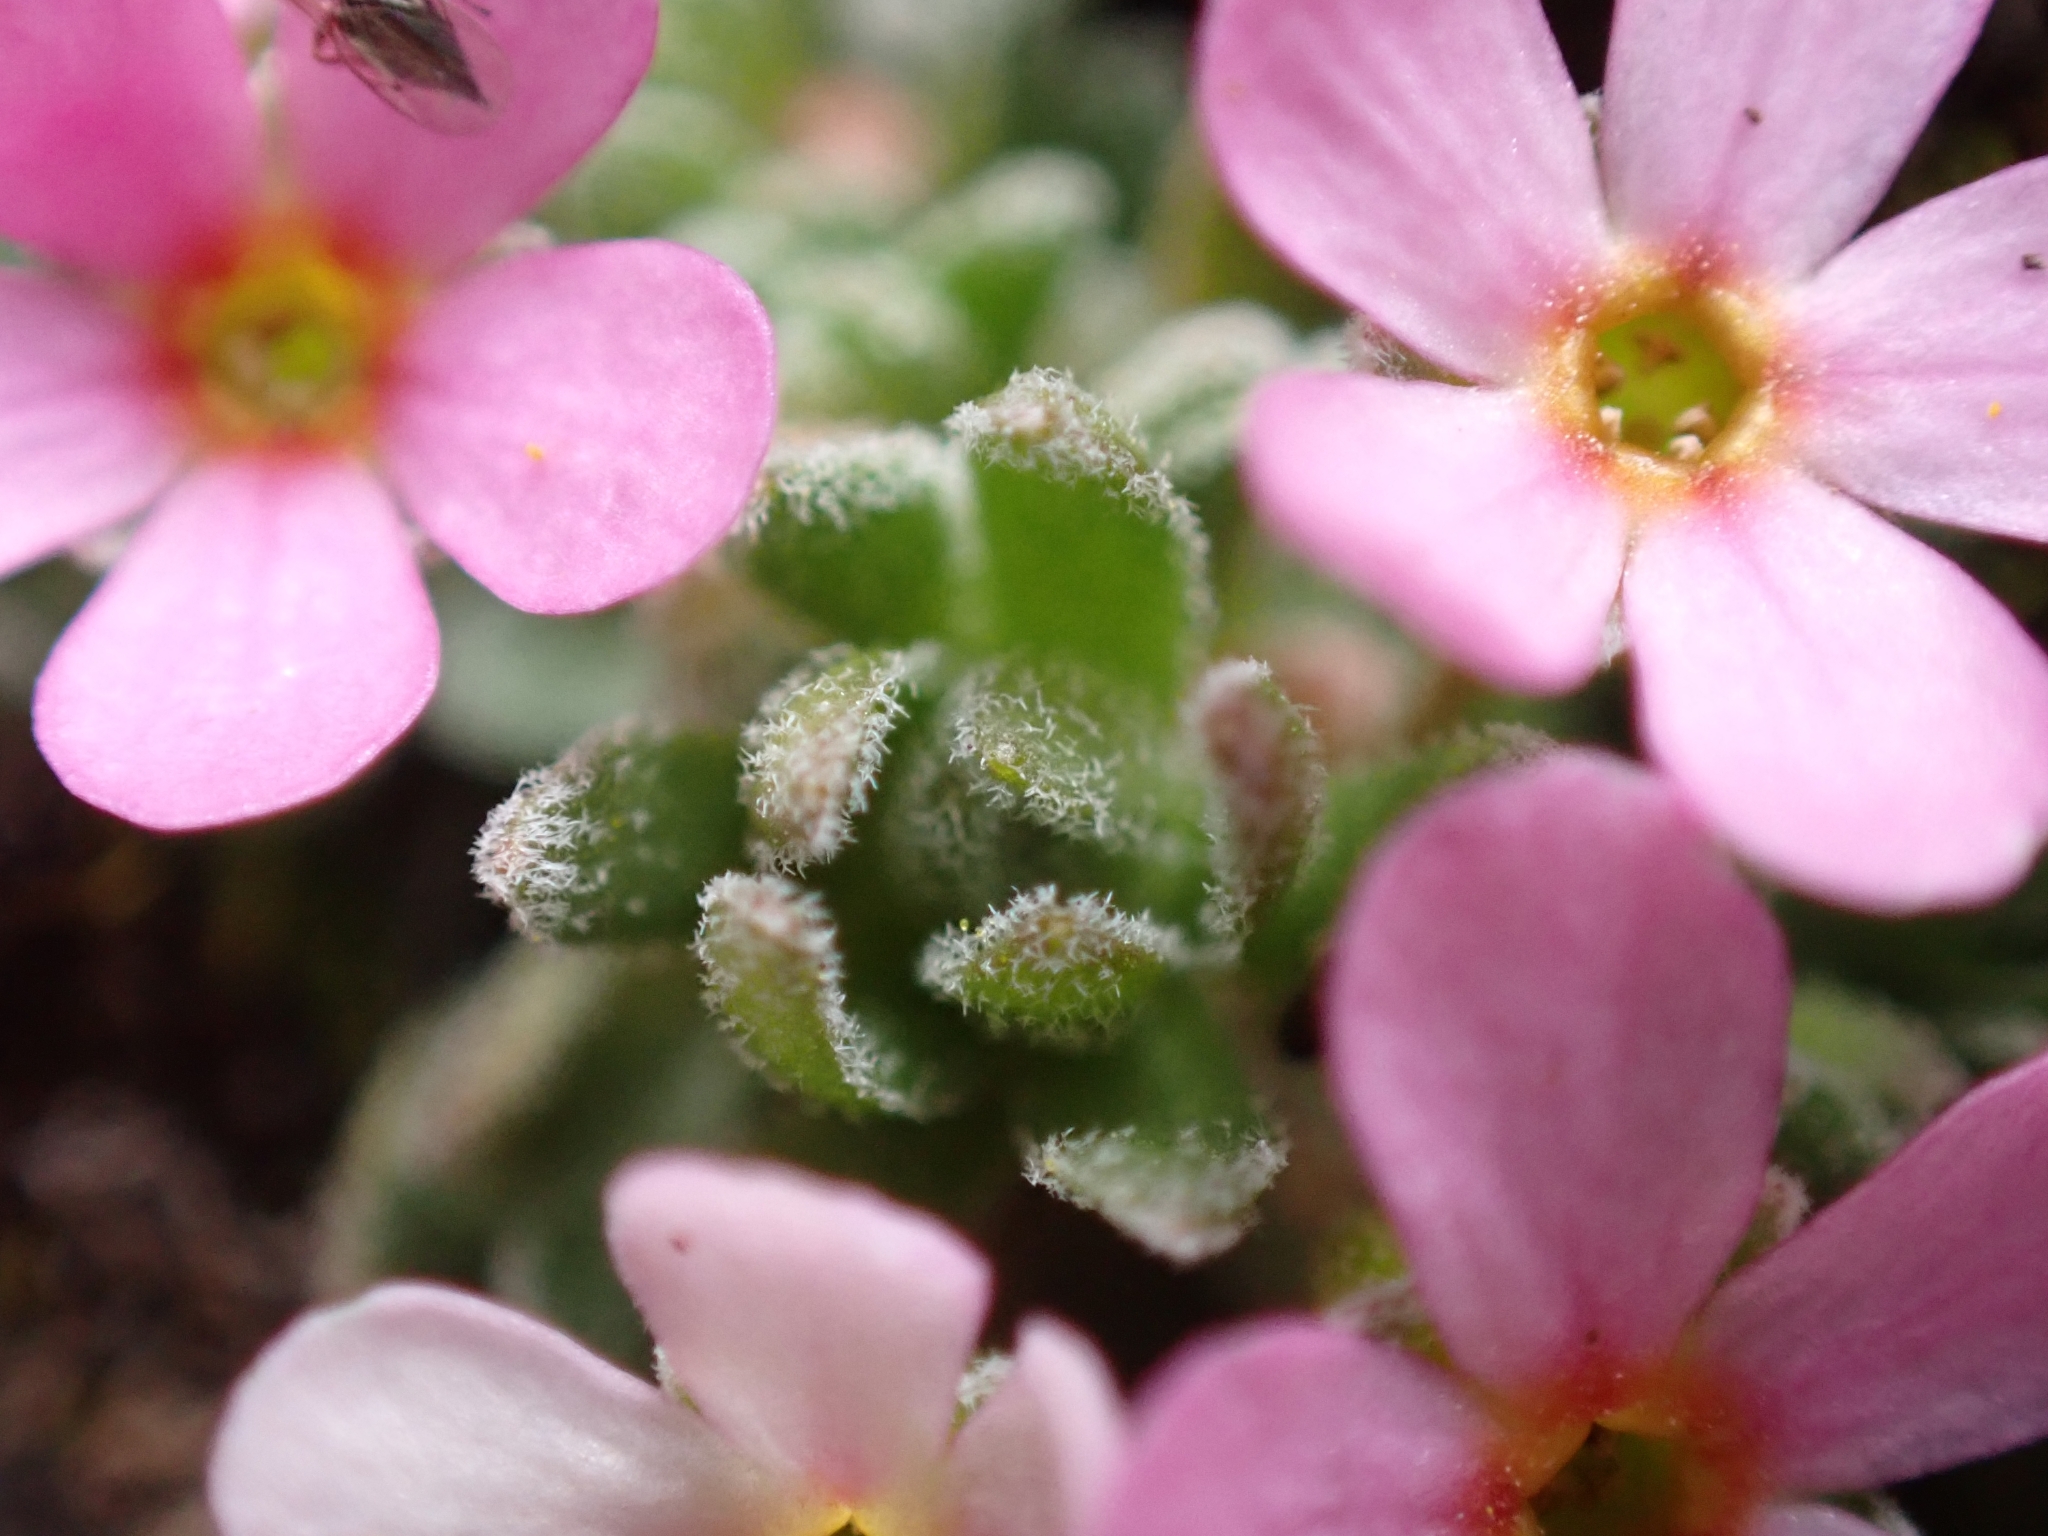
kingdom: Plantae
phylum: Tracheophyta
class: Magnoliopsida
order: Ericales
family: Primulaceae
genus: Androsace
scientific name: Androsace alpina
